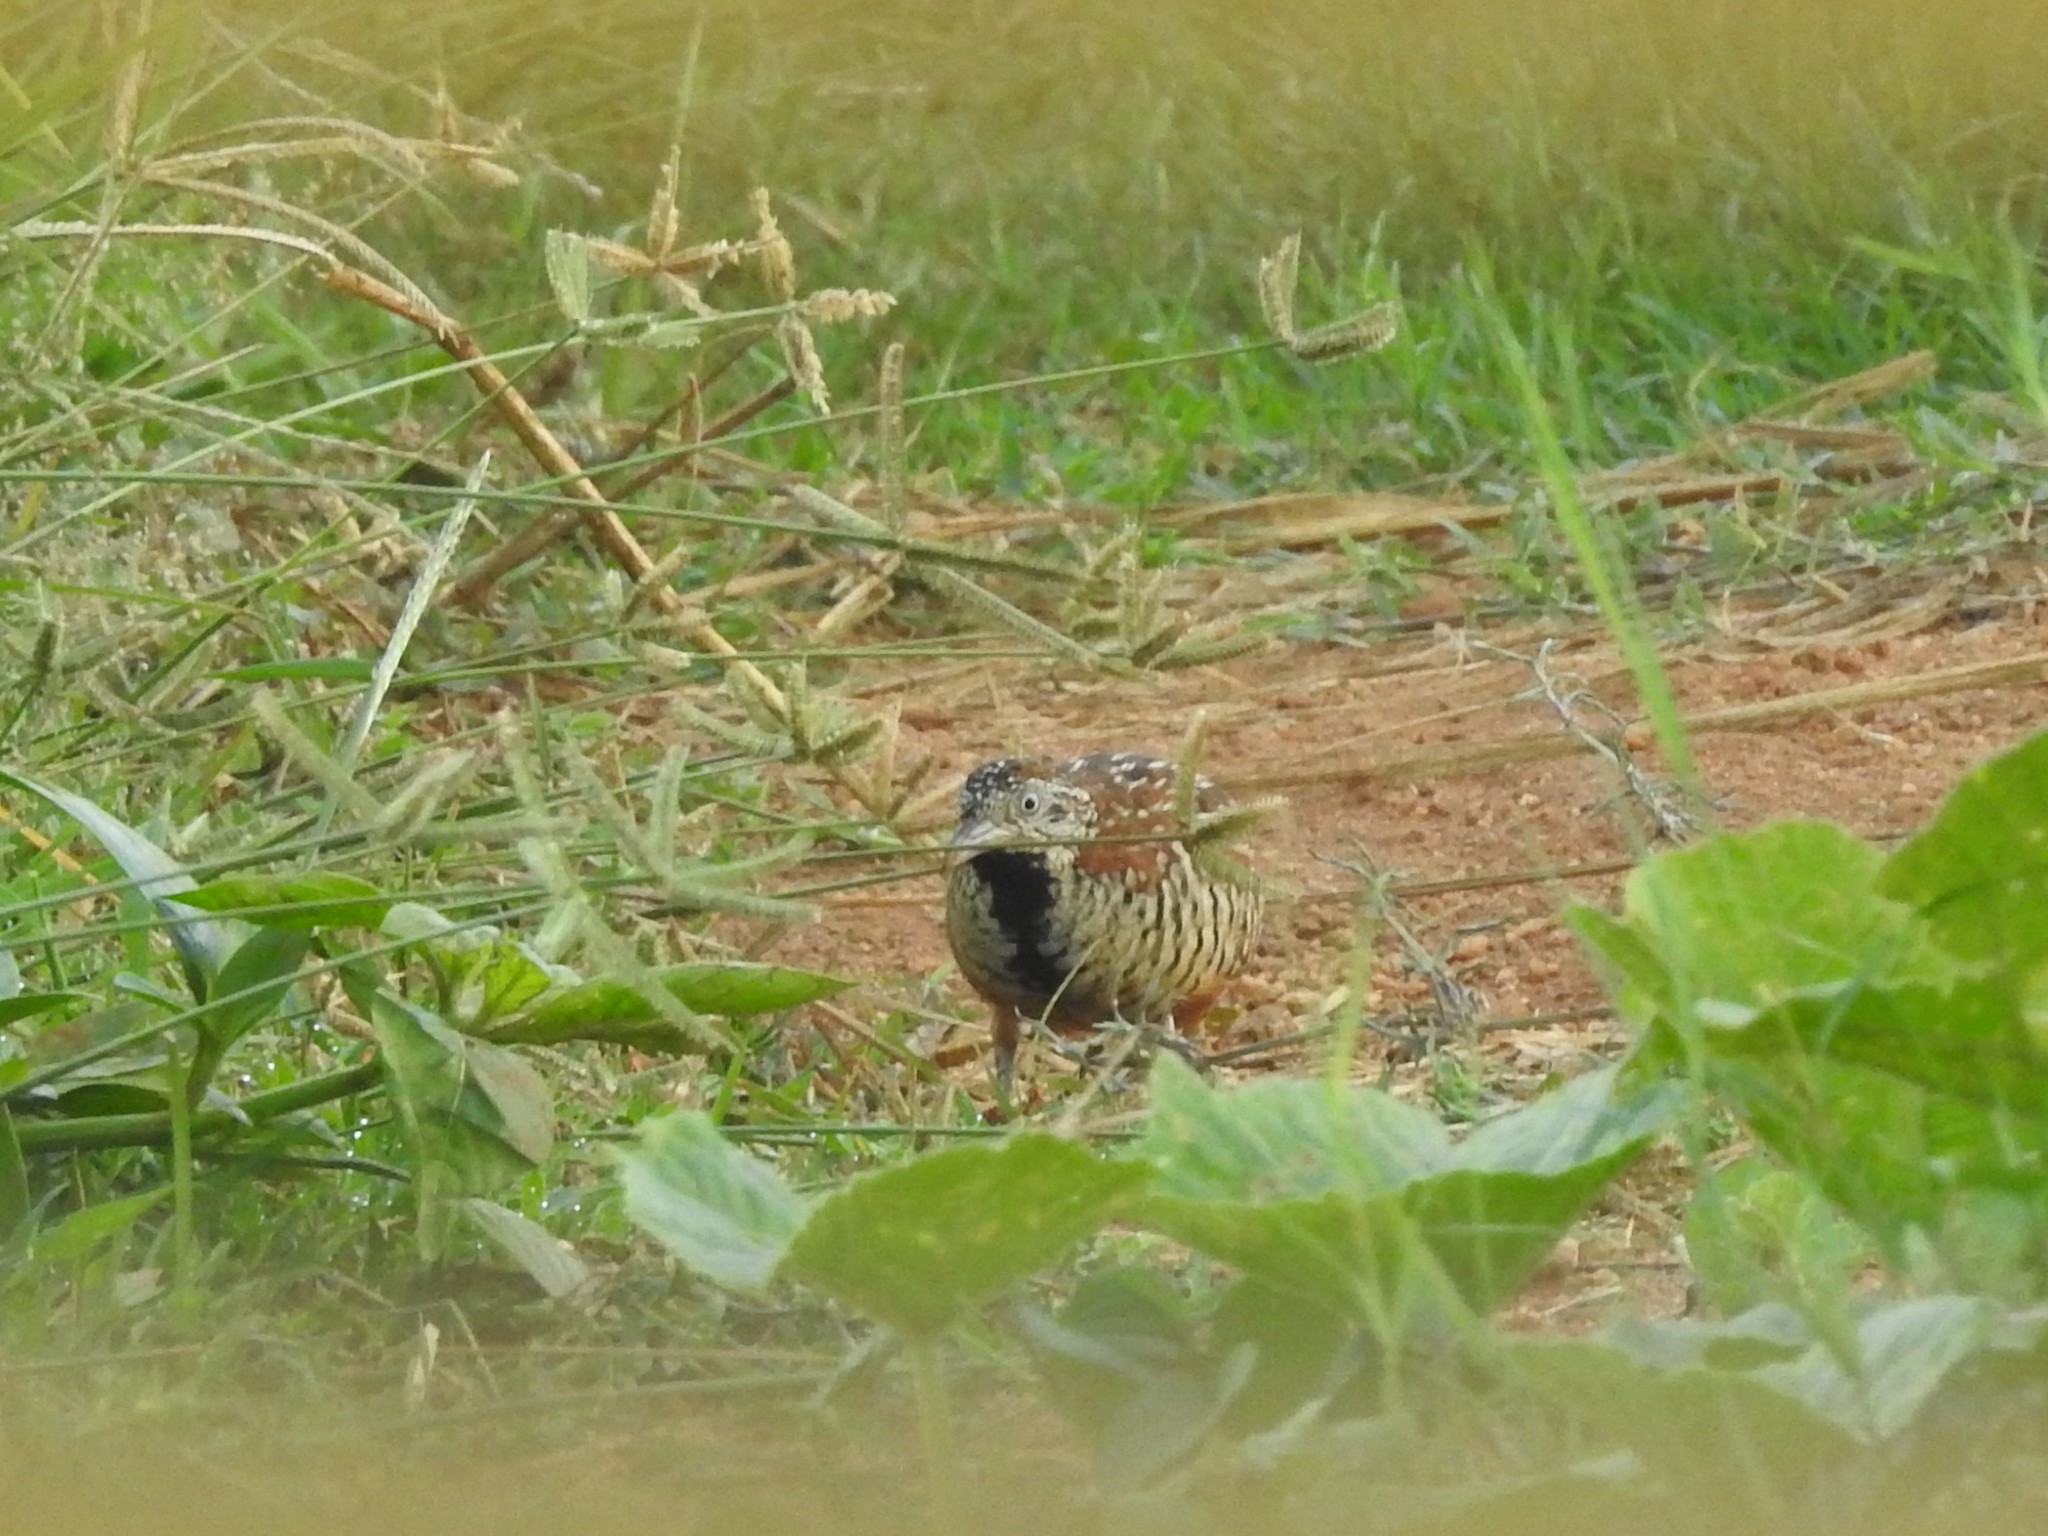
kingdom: Animalia
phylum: Chordata
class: Aves
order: Charadriiformes
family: Turnicidae
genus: Turnix
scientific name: Turnix suscitator
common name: Barred buttonquail
